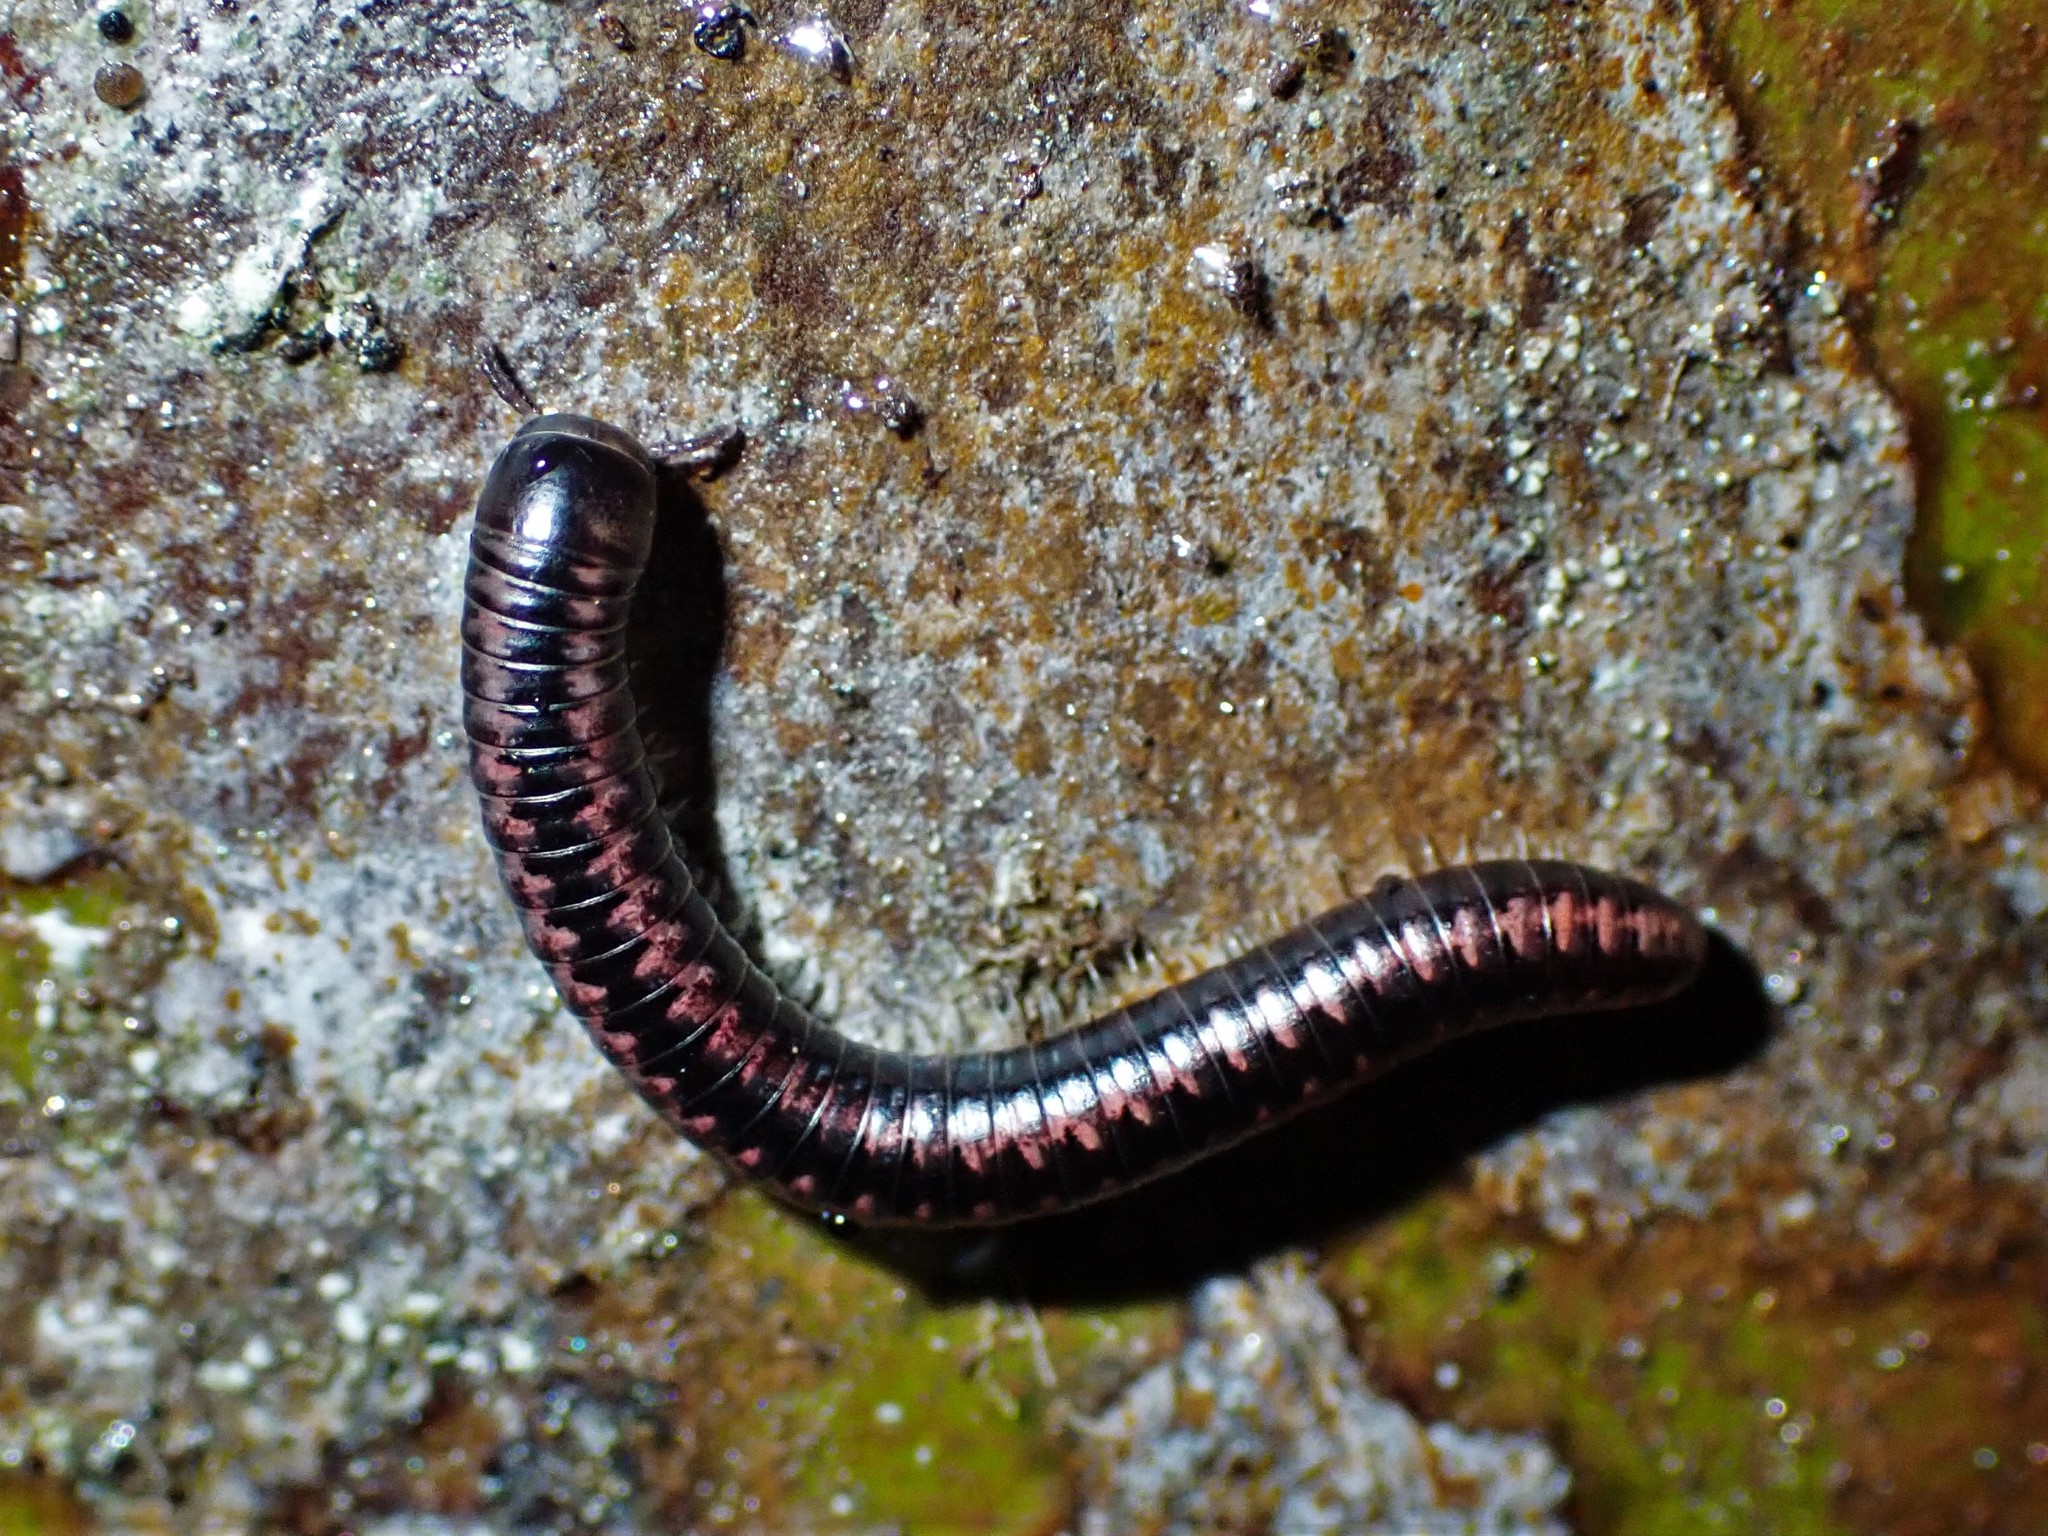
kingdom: Animalia
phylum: Arthropoda
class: Diplopoda
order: Spirobolida
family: Spirobolellidae
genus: Spirobolellus
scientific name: Spirobolellus antipodarum
